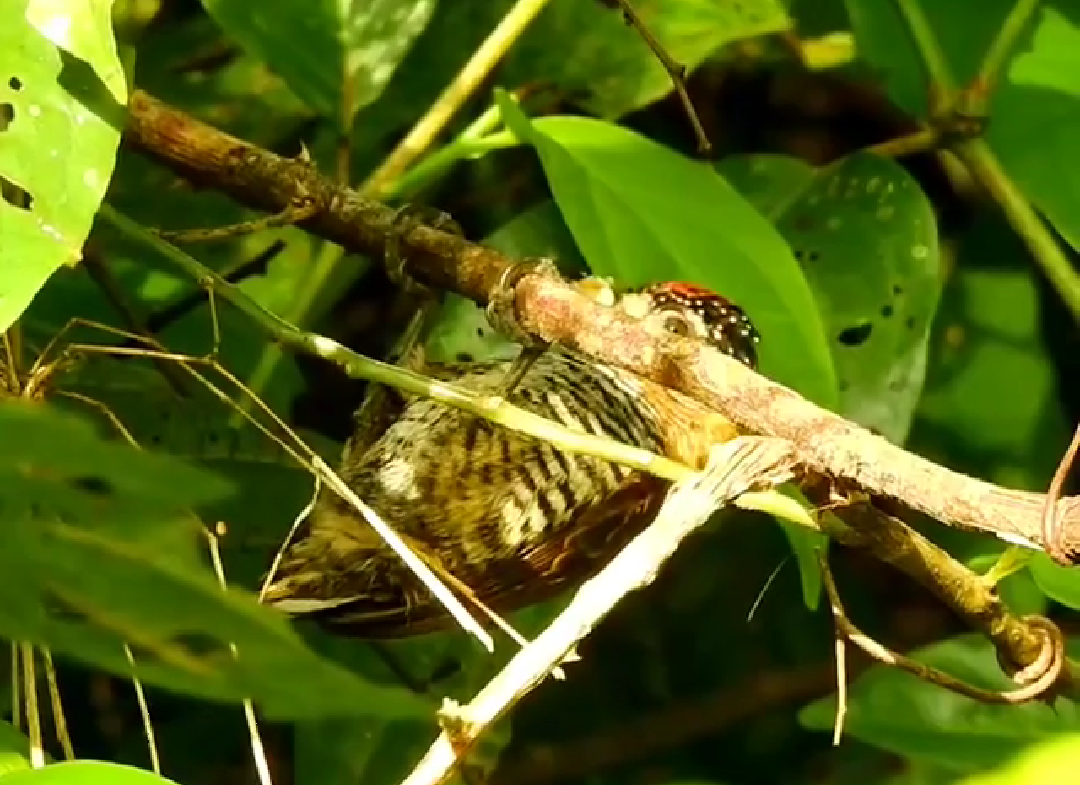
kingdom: Animalia
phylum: Chordata
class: Aves
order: Piciformes
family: Picidae
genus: Picumnus
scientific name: Picumnus temminckii
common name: Ochre-collared piculet
